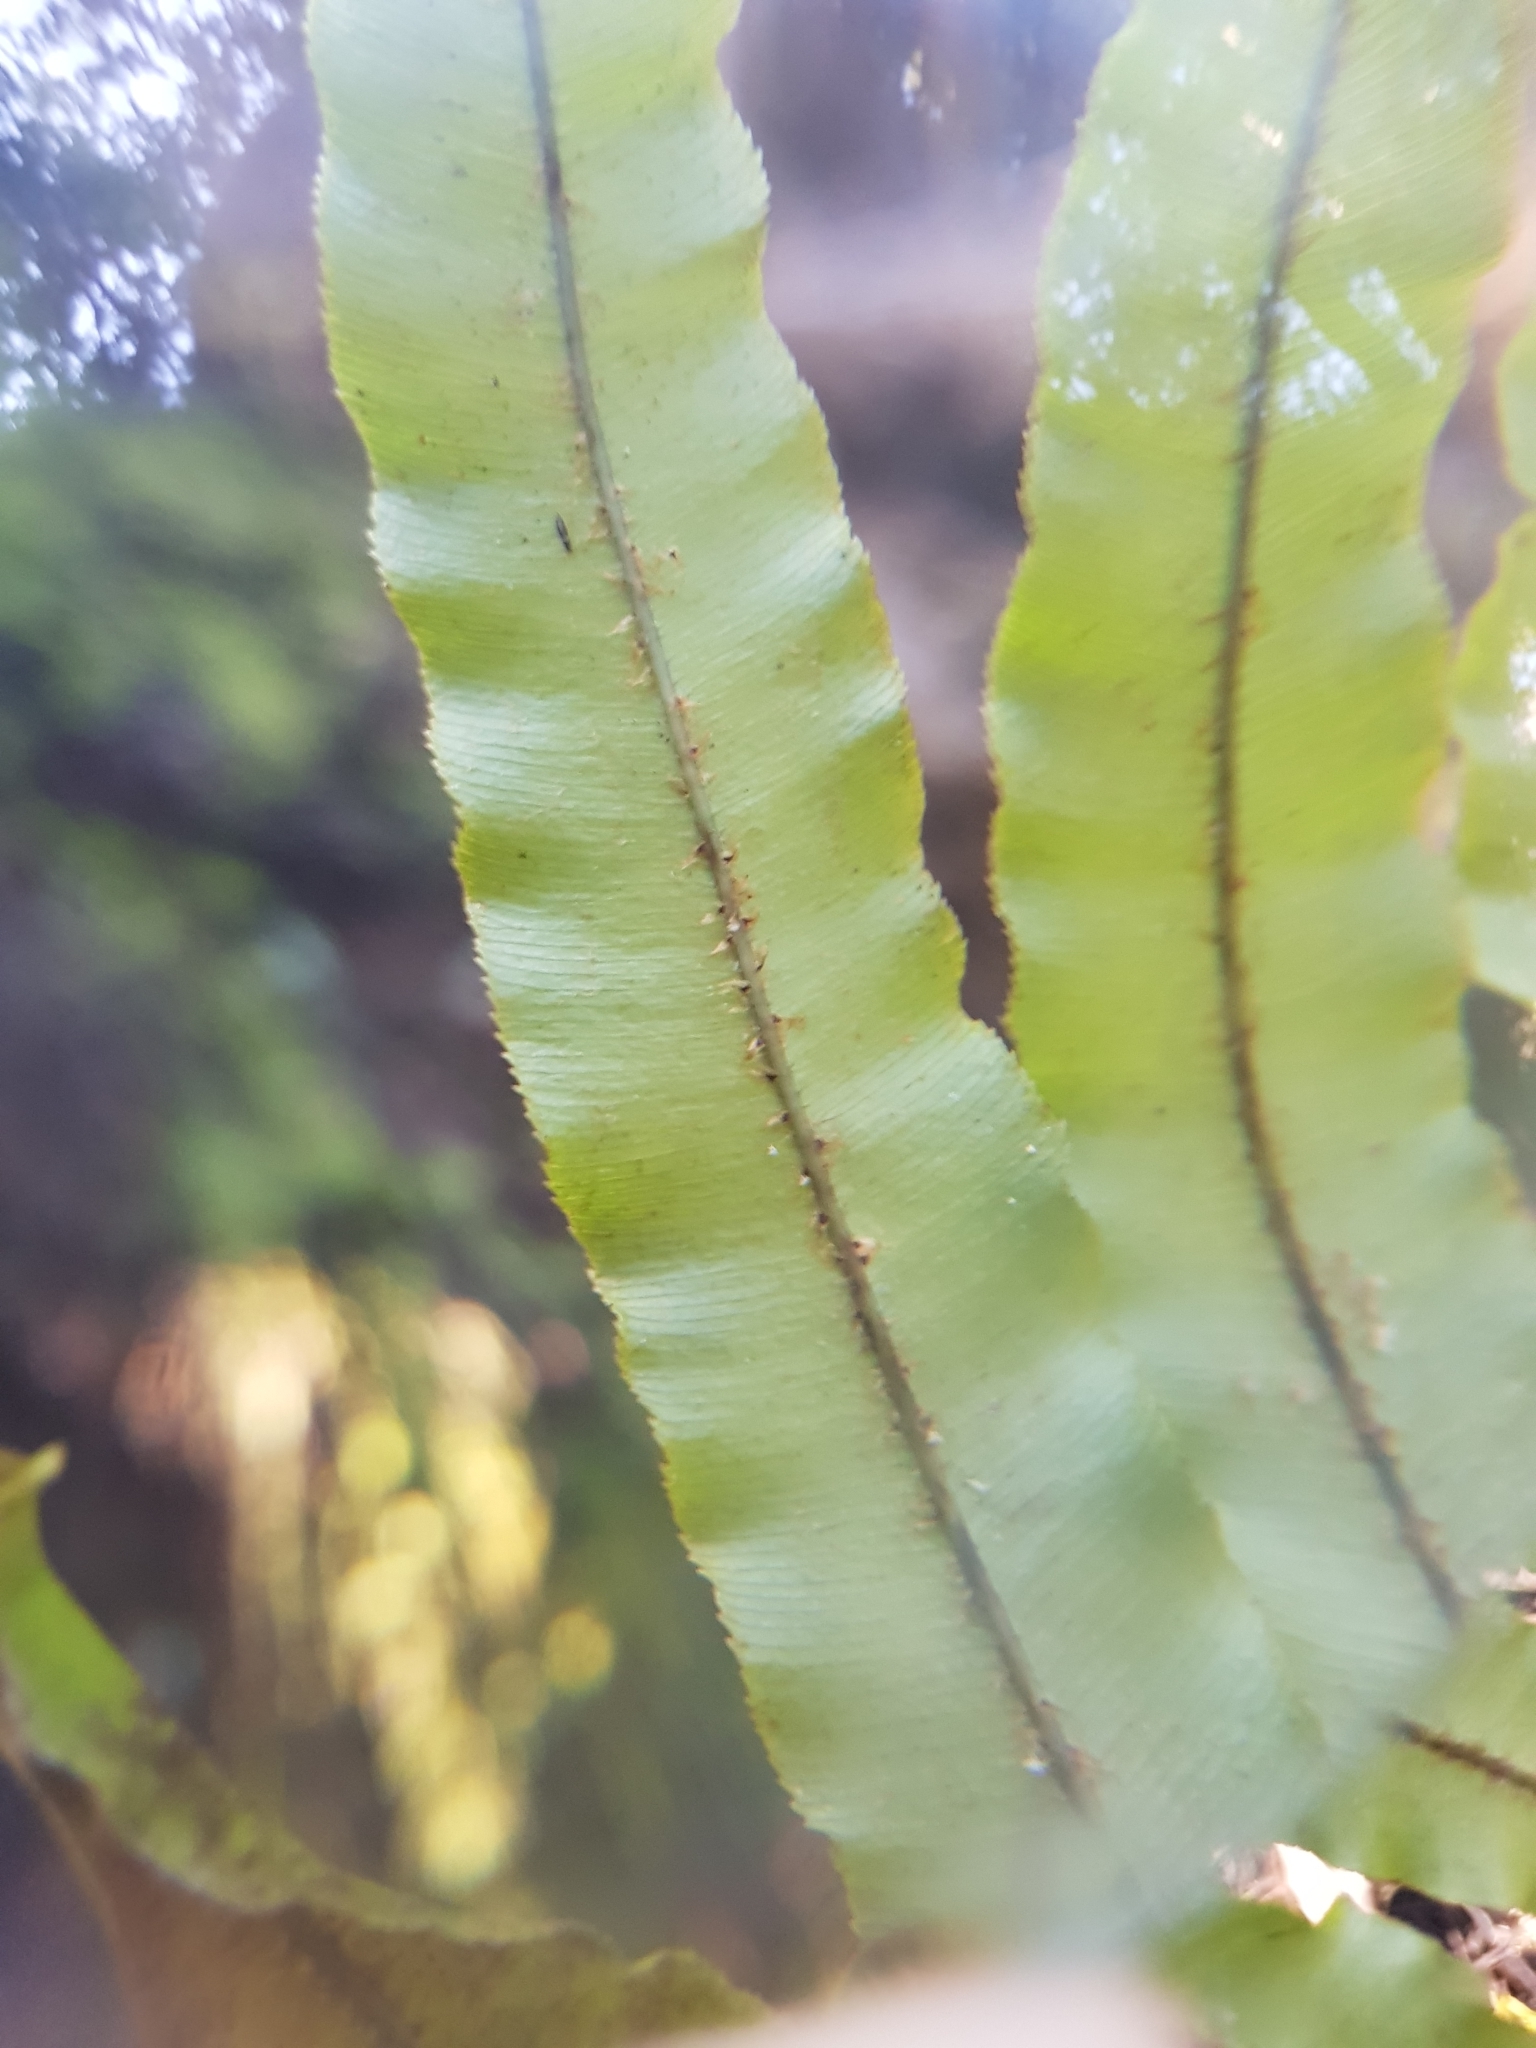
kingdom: Plantae
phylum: Tracheophyta
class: Polypodiopsida
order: Polypodiales
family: Blechnaceae
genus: Parablechnum
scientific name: Parablechnum novae-zelandiae
